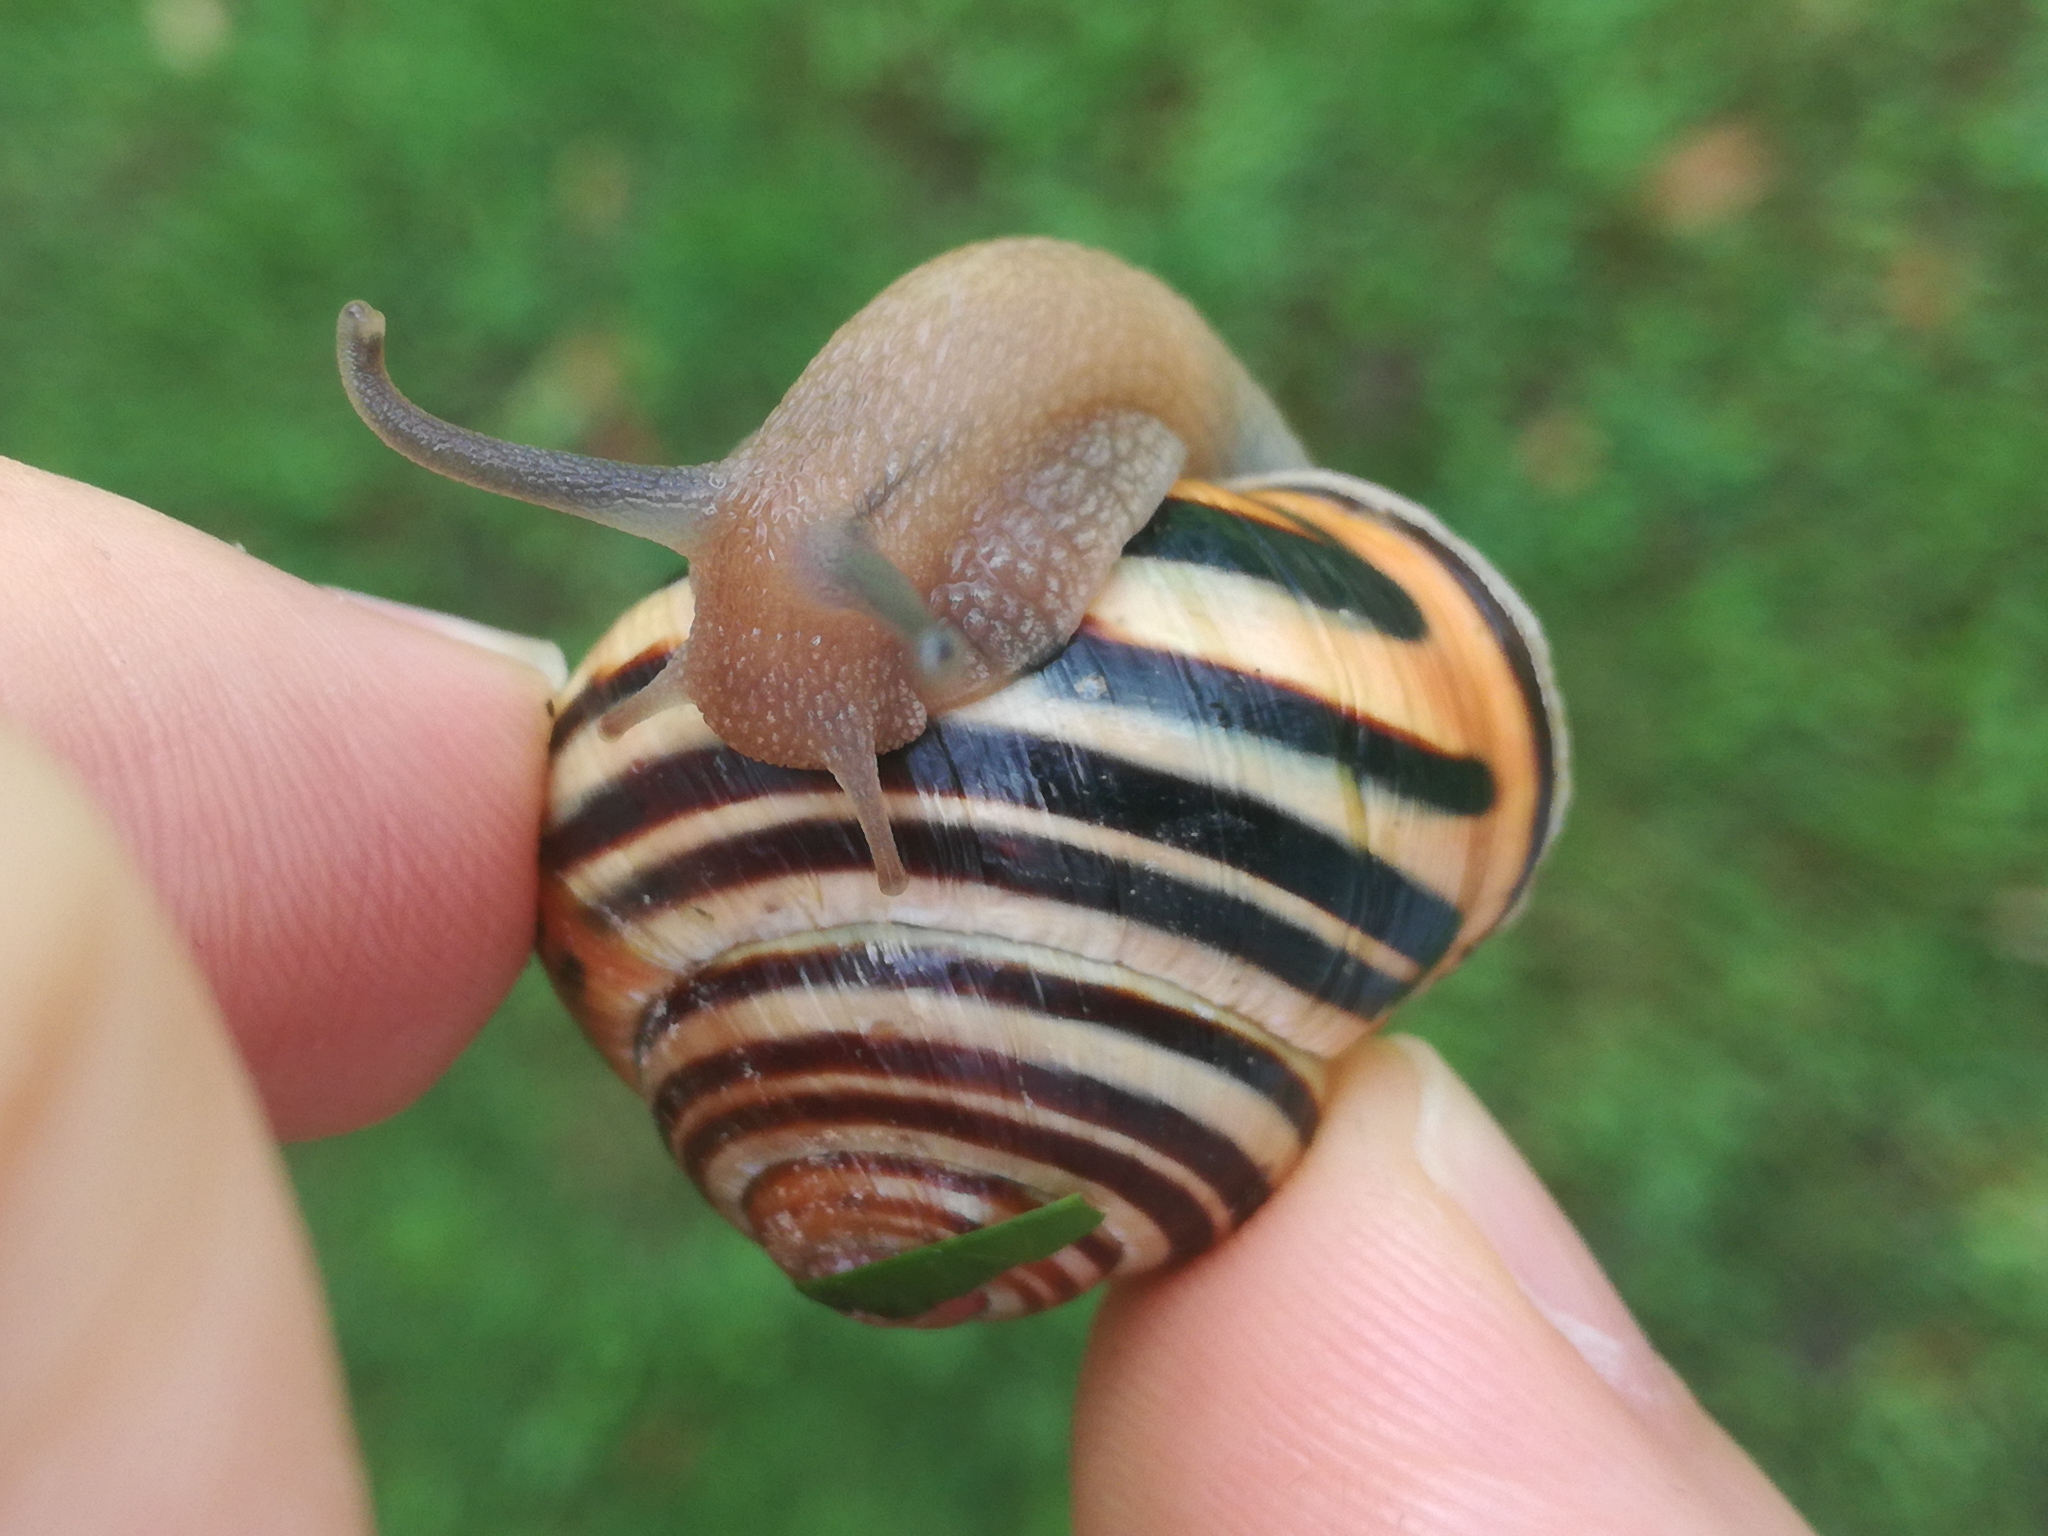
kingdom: Animalia
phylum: Mollusca
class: Gastropoda
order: Stylommatophora
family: Helicidae
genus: Cepaea
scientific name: Cepaea nemoralis
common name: Grovesnail
